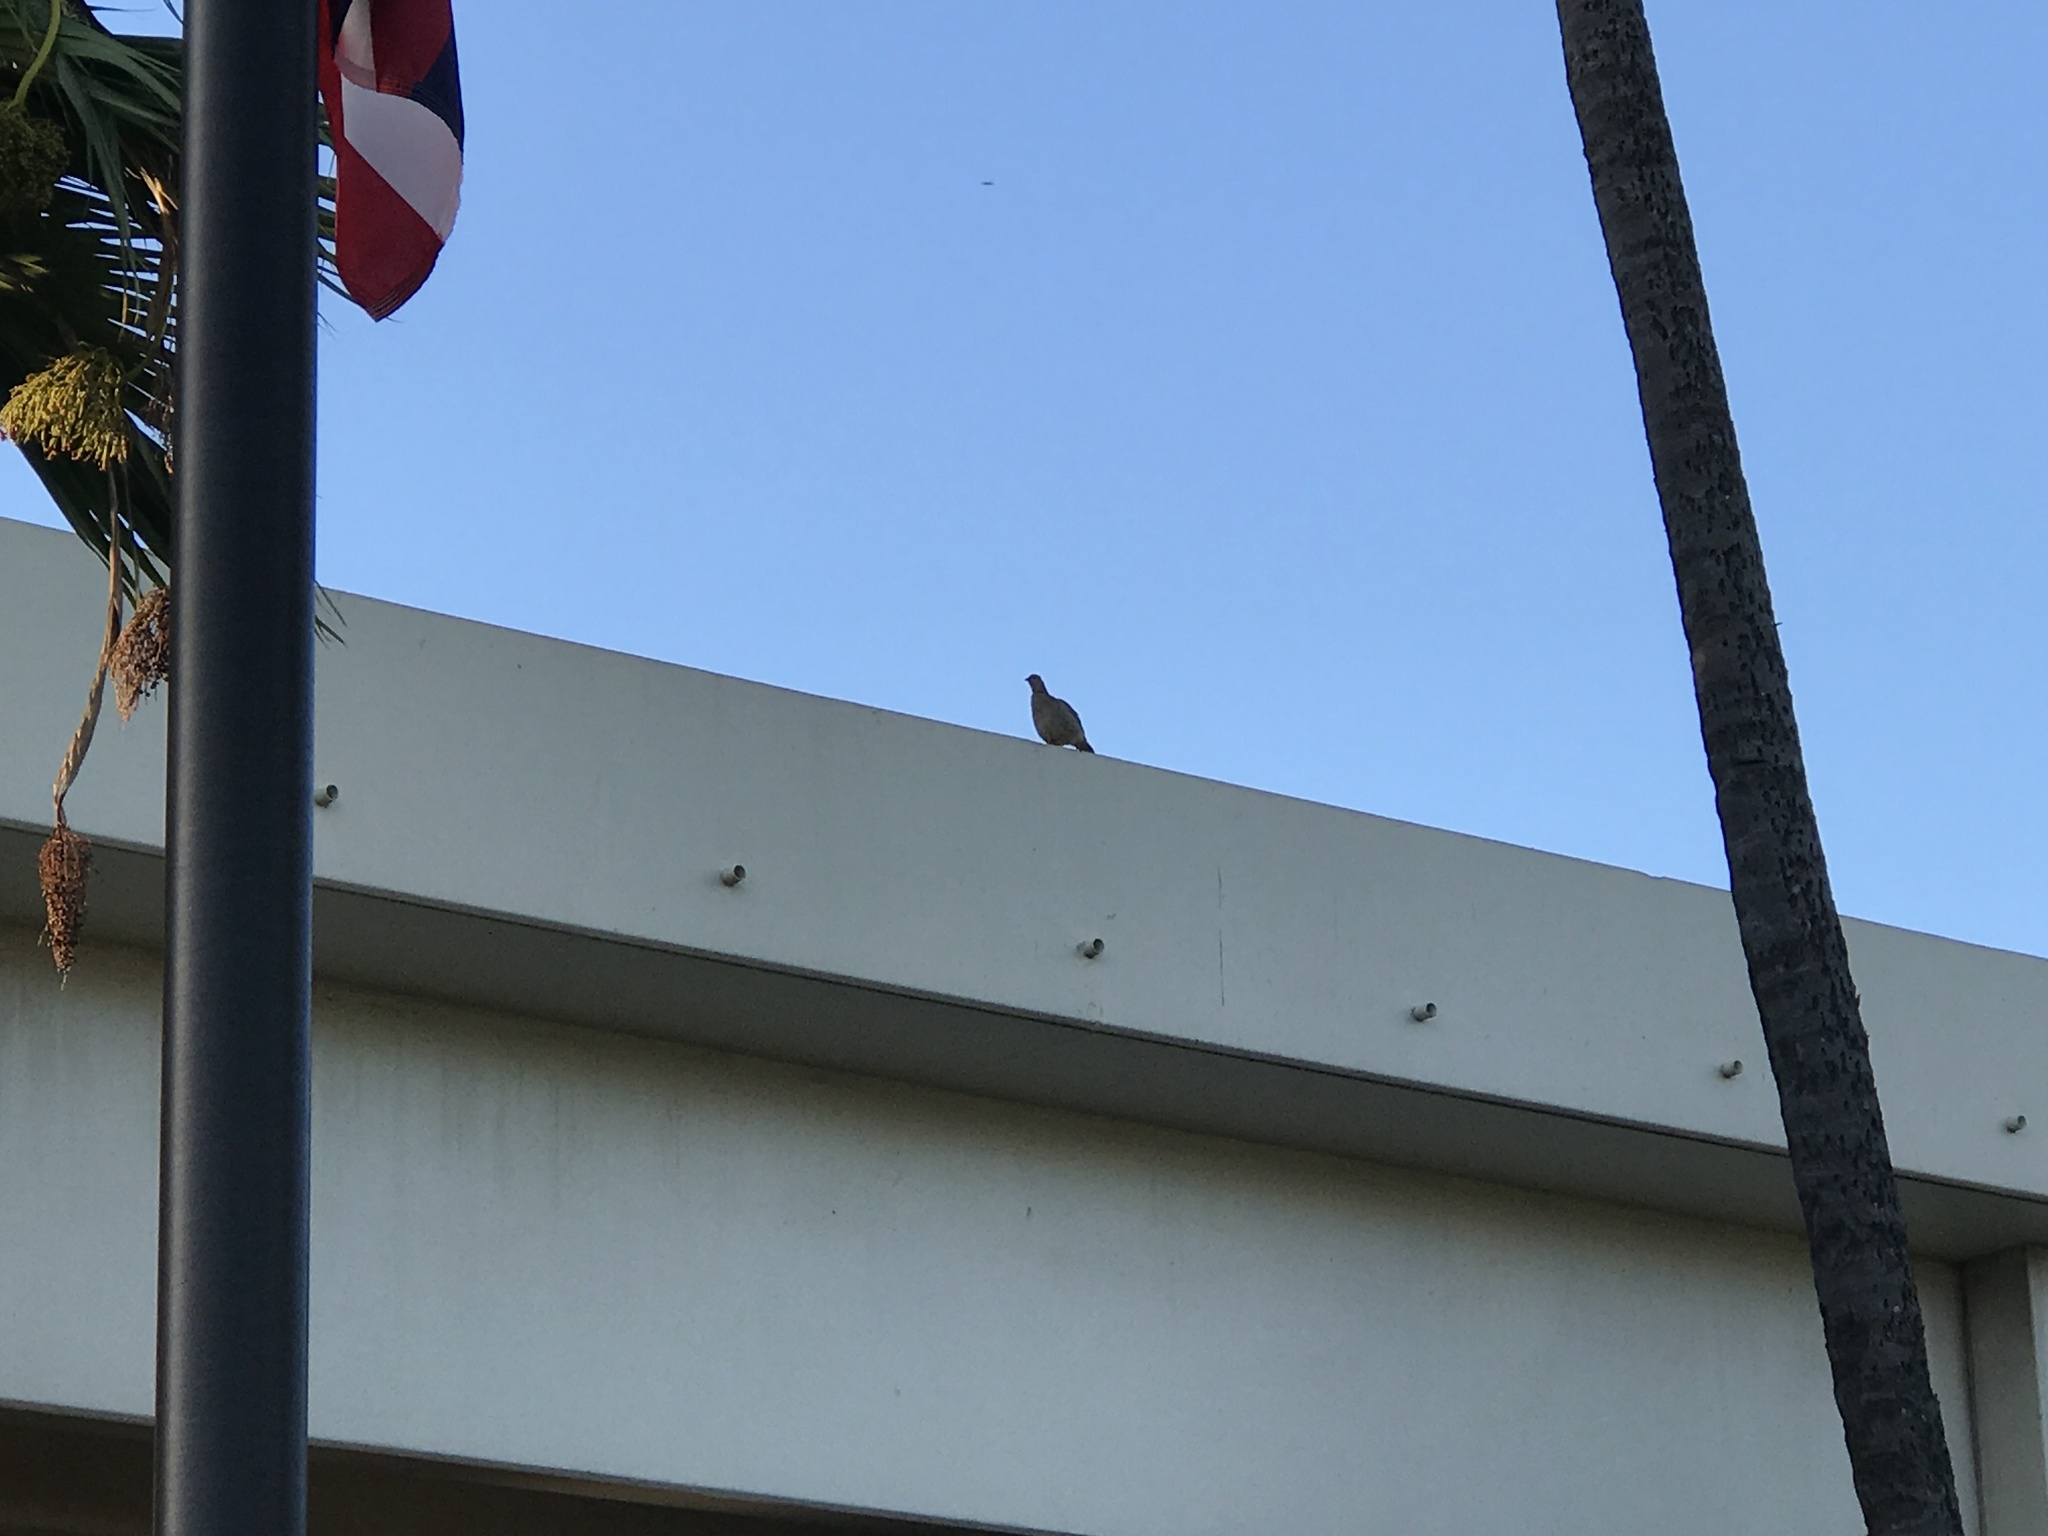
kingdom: Animalia
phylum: Chordata
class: Aves
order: Galliformes
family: Phasianidae
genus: Ortygornis
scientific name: Ortygornis pondicerianus
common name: Grey francolin
